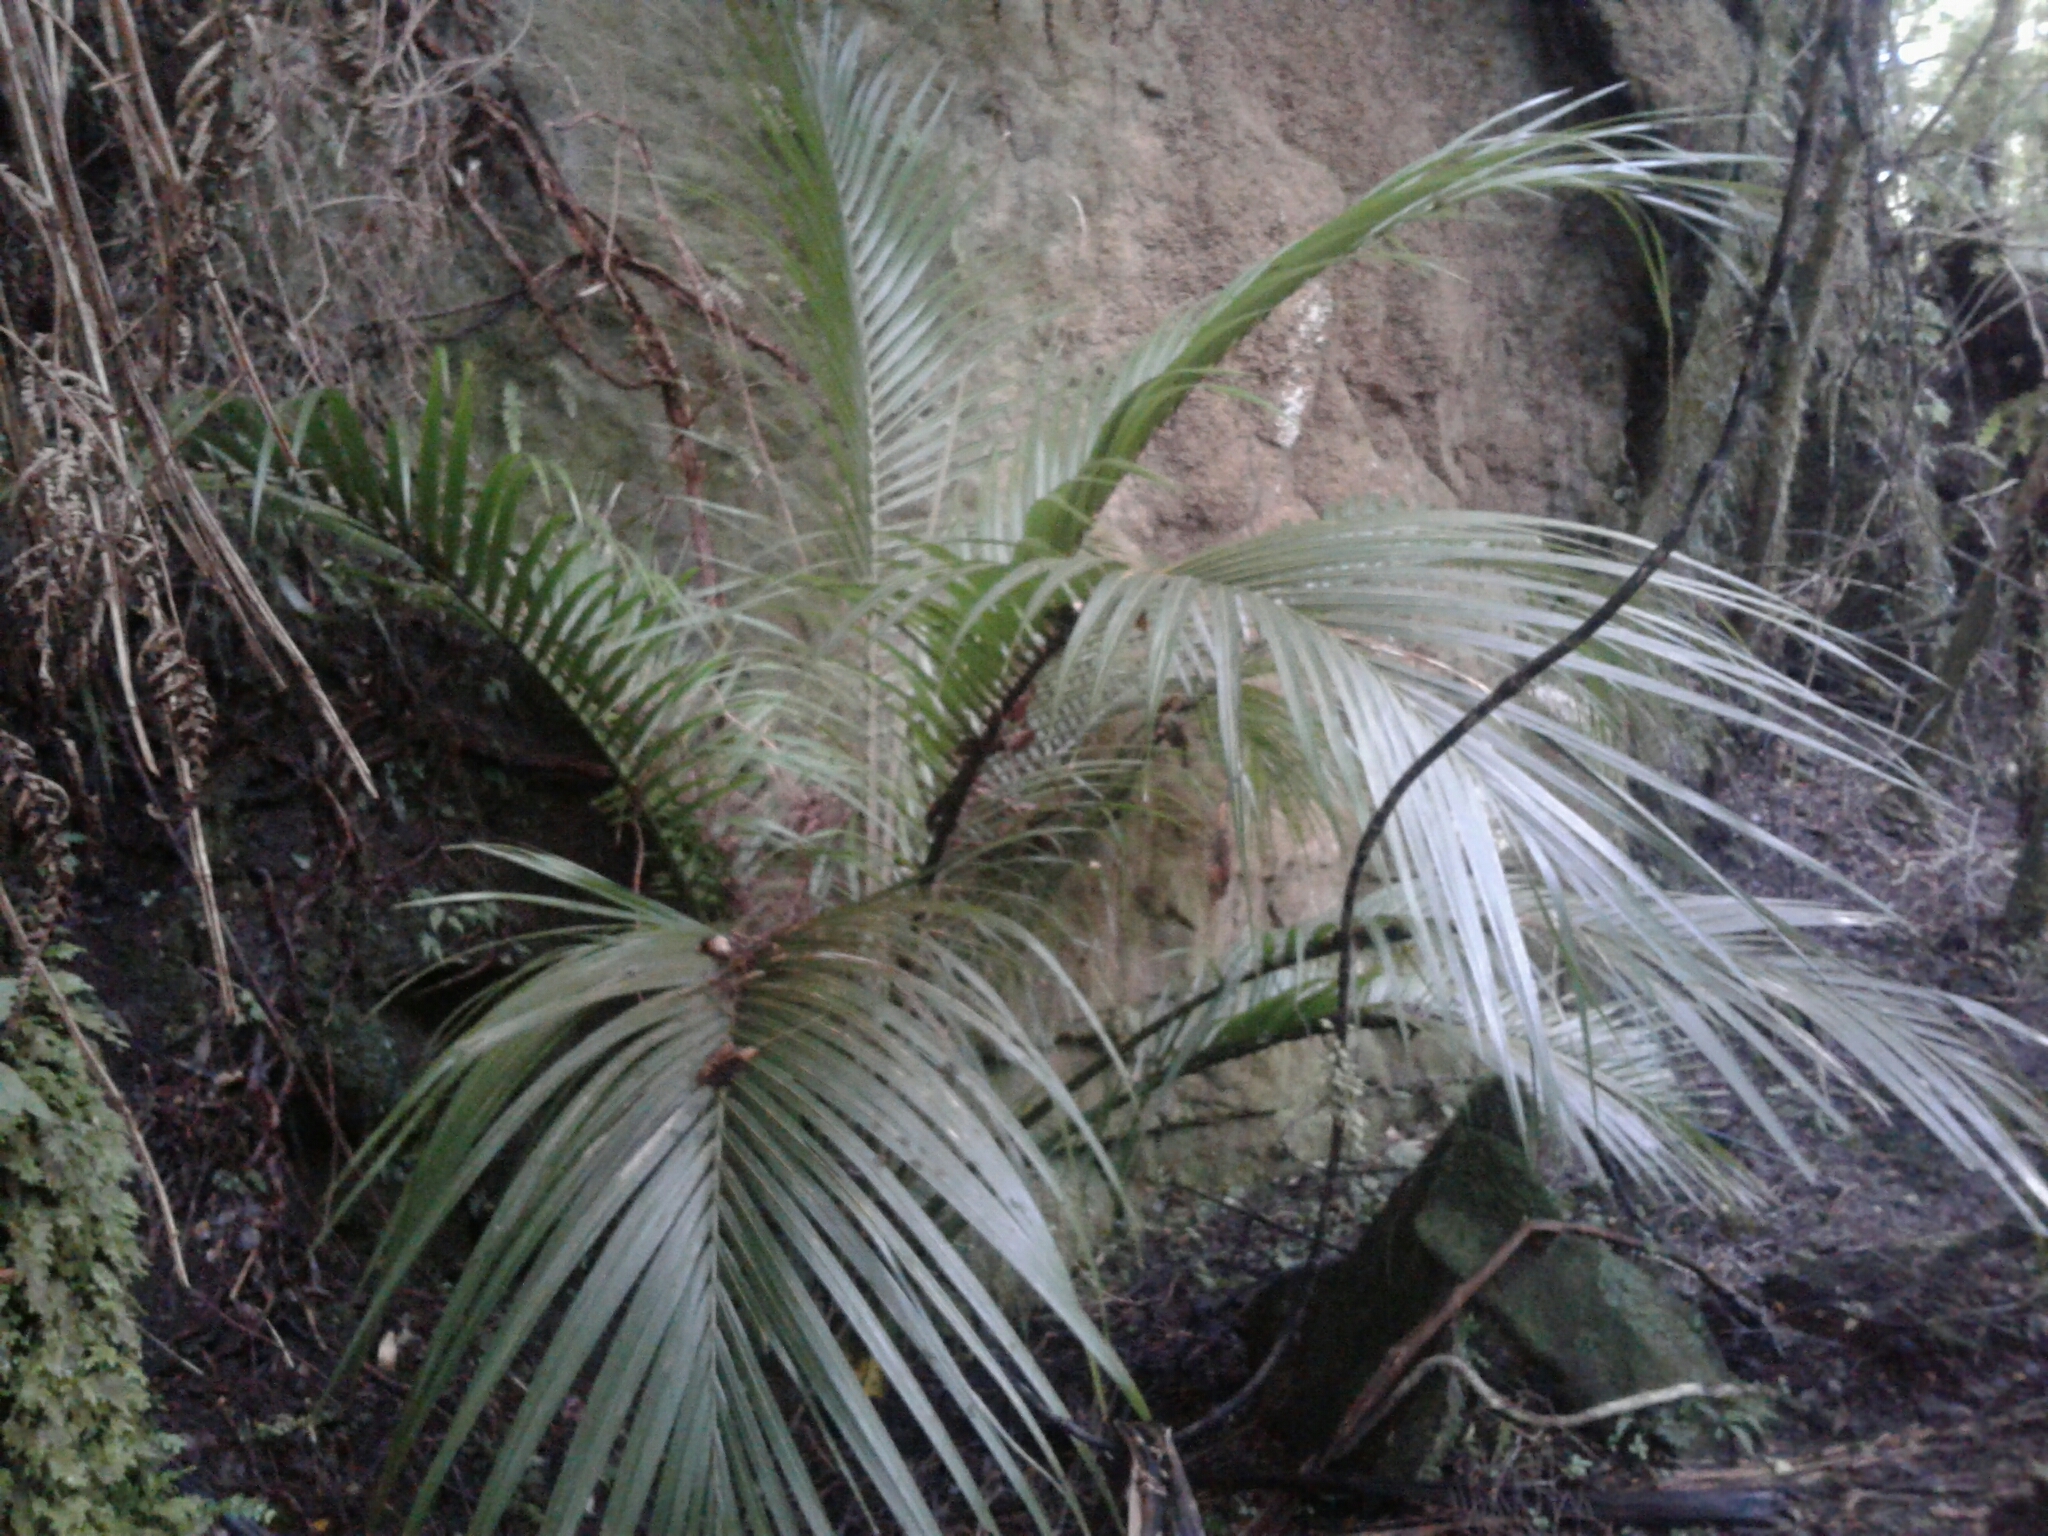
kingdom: Plantae
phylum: Tracheophyta
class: Liliopsida
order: Arecales
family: Arecaceae
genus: Rhopalostylis
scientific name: Rhopalostylis sapida
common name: Feather-duster palm
